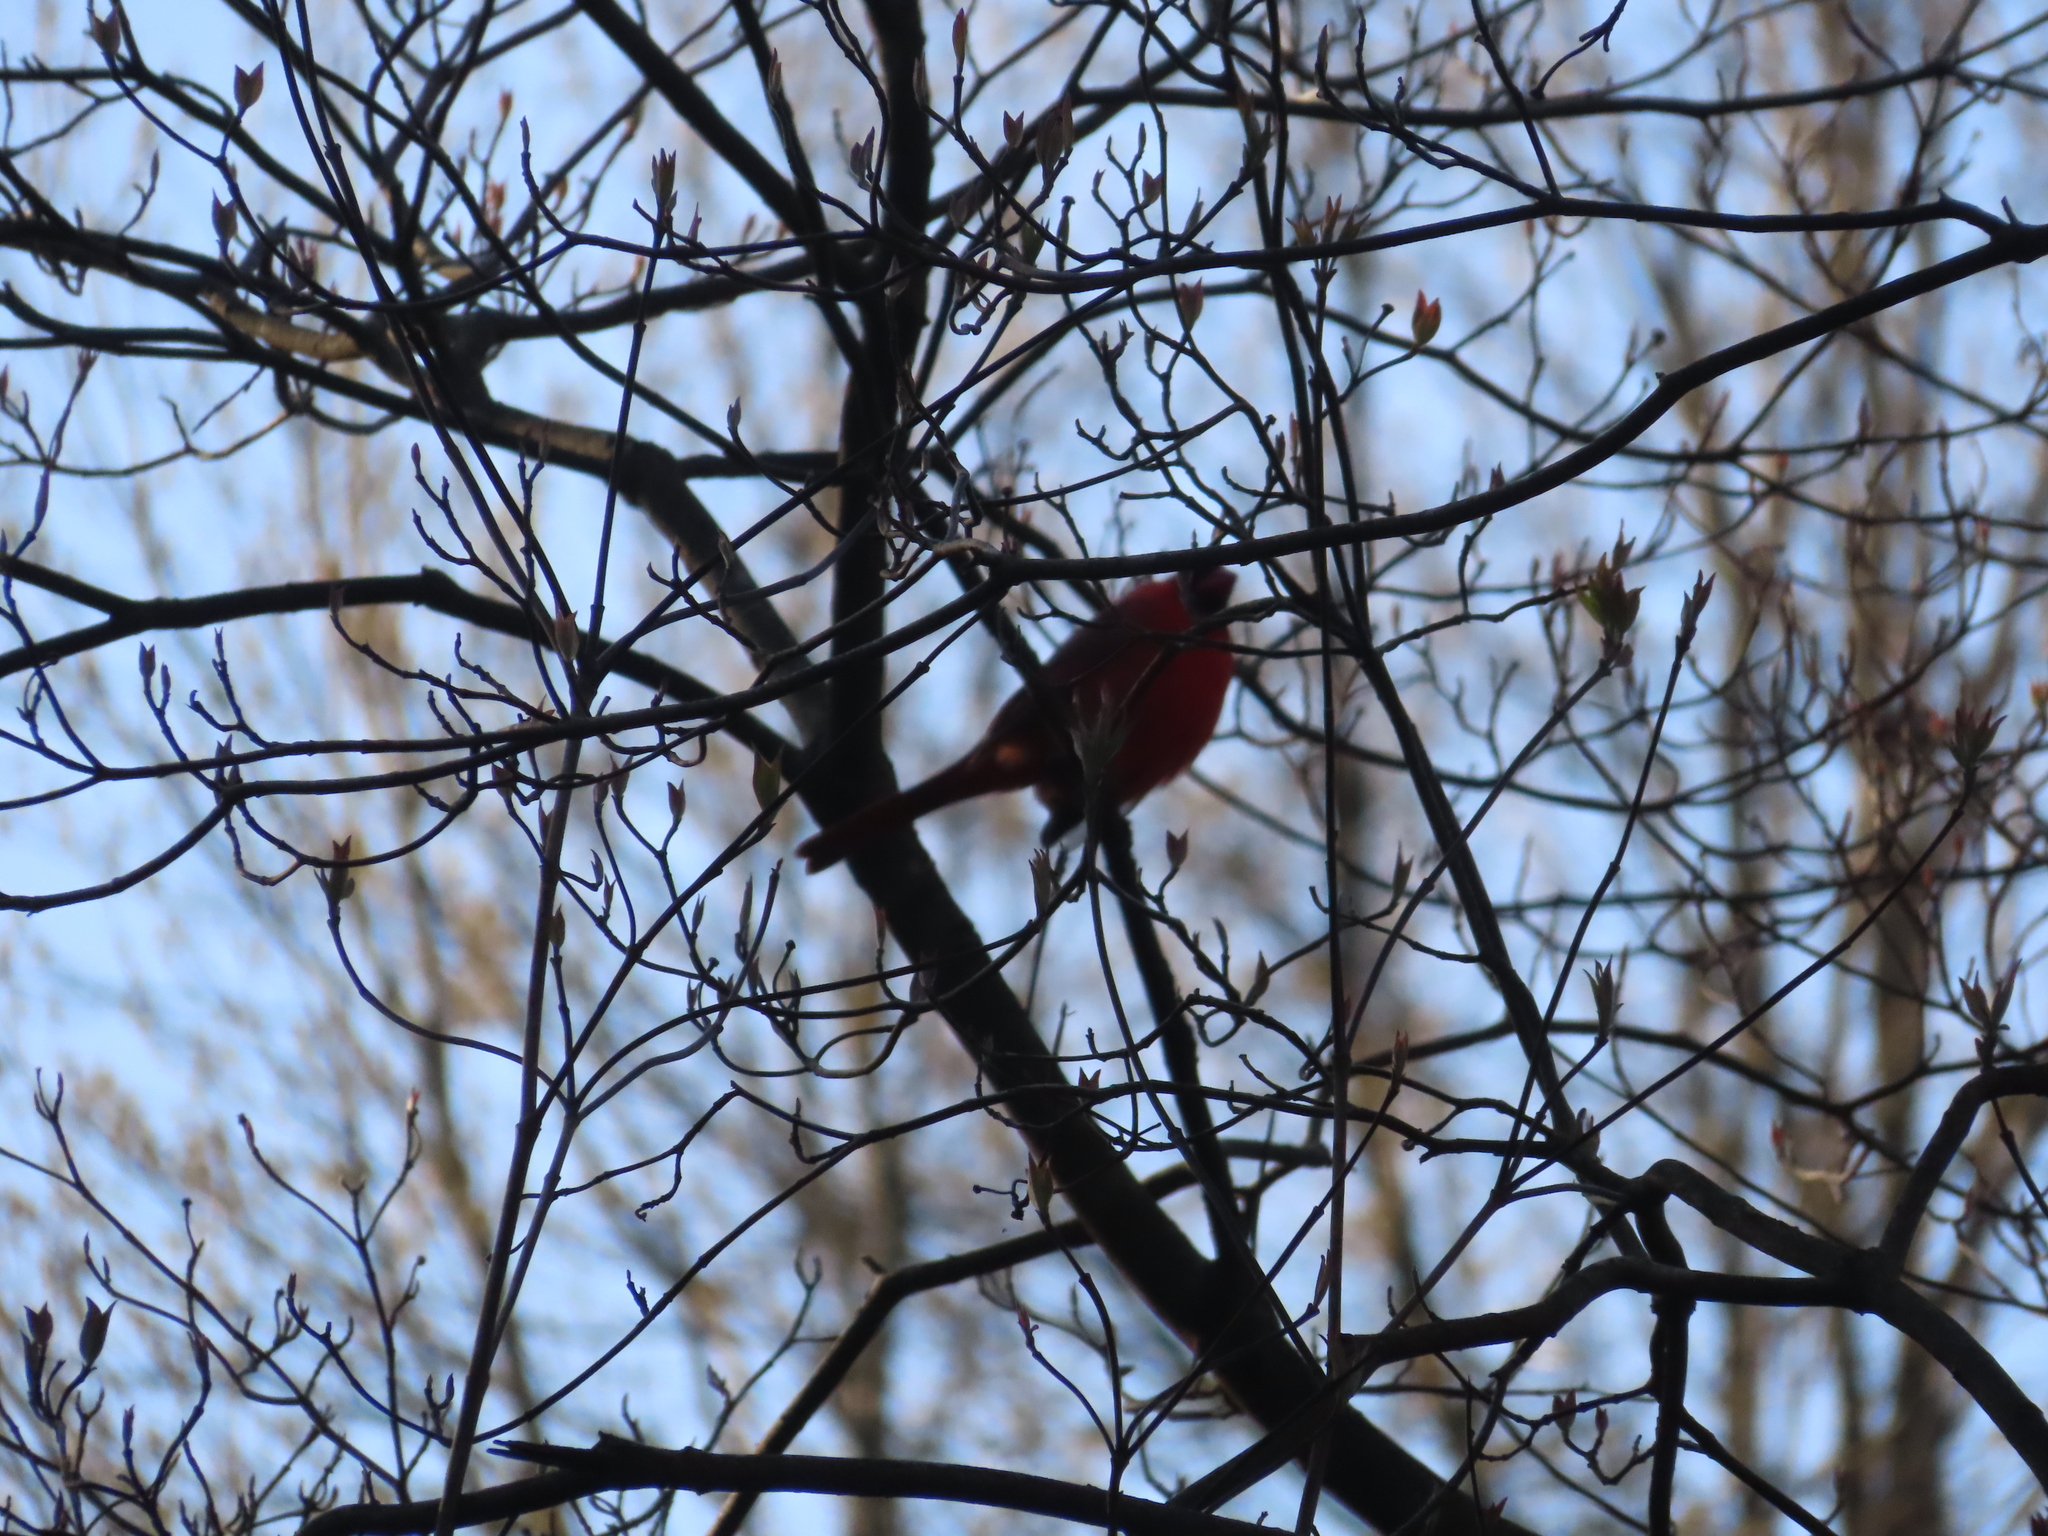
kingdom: Animalia
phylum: Chordata
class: Aves
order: Passeriformes
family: Cardinalidae
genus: Cardinalis
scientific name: Cardinalis cardinalis
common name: Northern cardinal
